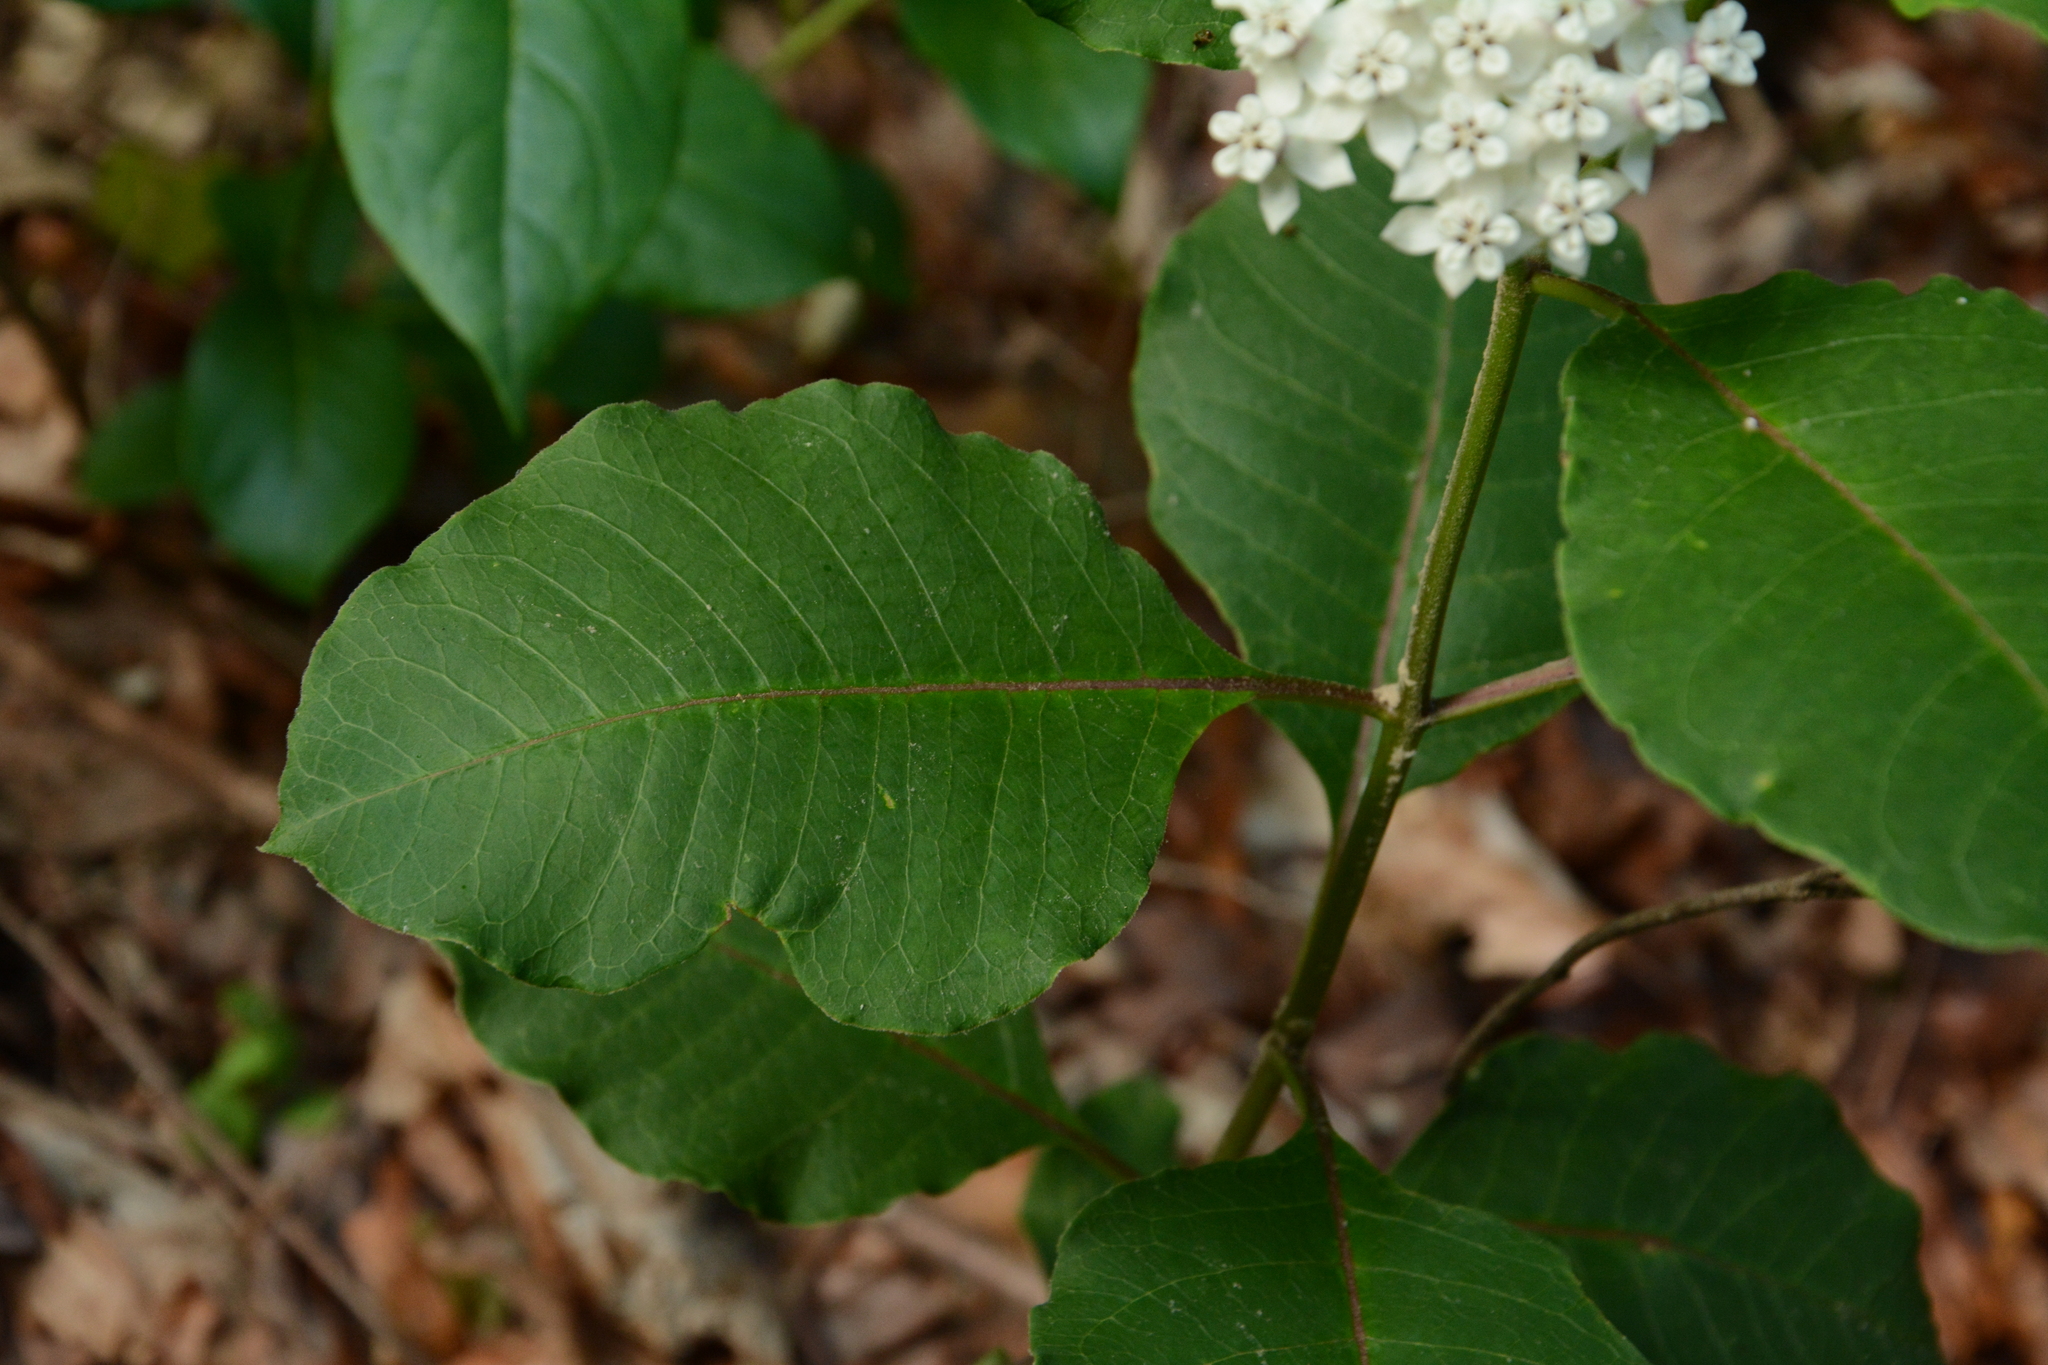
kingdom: Plantae
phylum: Tracheophyta
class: Magnoliopsida
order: Gentianales
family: Apocynaceae
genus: Asclepias
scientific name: Asclepias variegata
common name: Variegated milkweed
